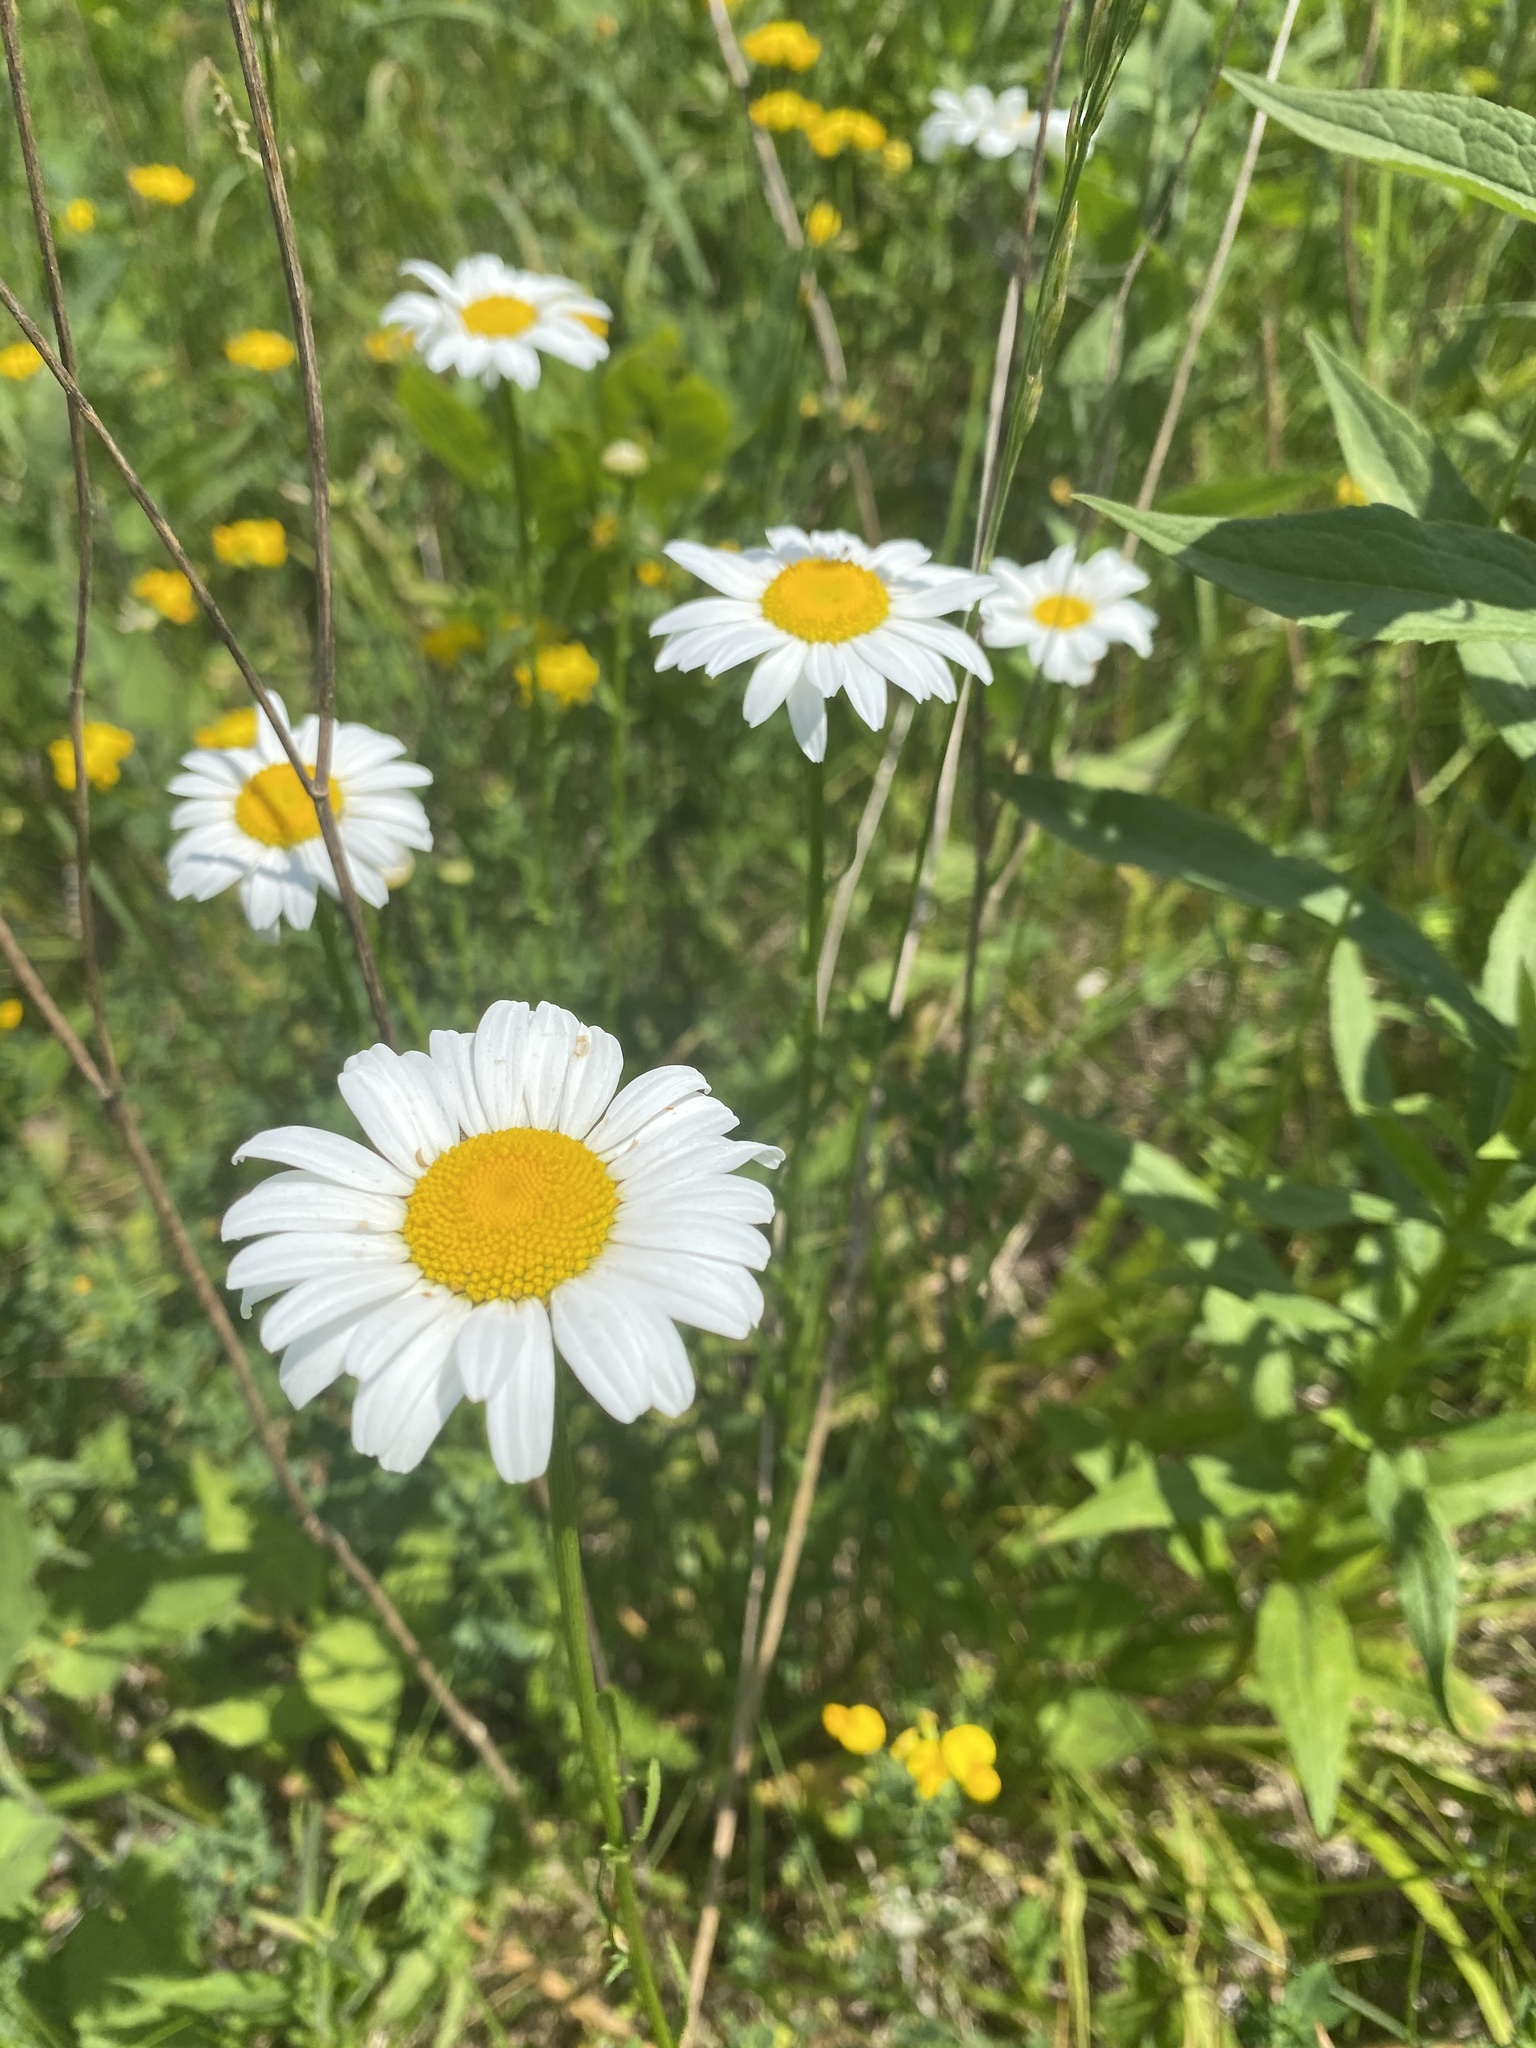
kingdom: Plantae
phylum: Tracheophyta
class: Magnoliopsida
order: Asterales
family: Asteraceae
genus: Leucanthemum
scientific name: Leucanthemum vulgare
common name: Oxeye daisy
